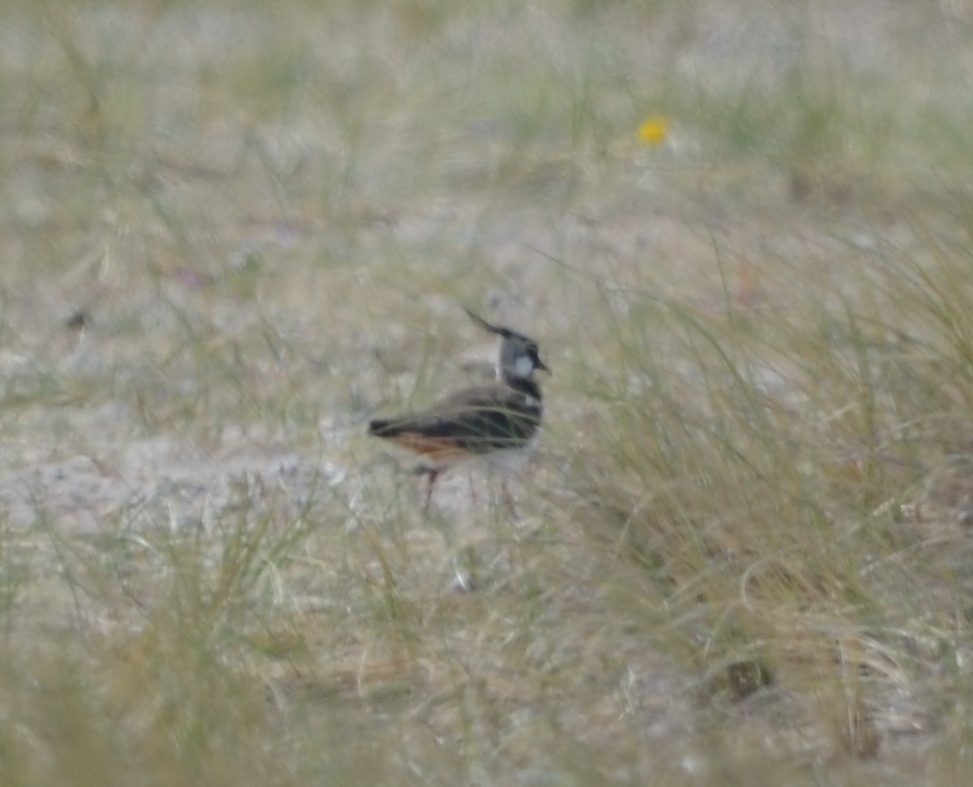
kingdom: Animalia
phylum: Chordata
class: Aves
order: Charadriiformes
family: Charadriidae
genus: Vanellus
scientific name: Vanellus vanellus
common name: Northern lapwing
